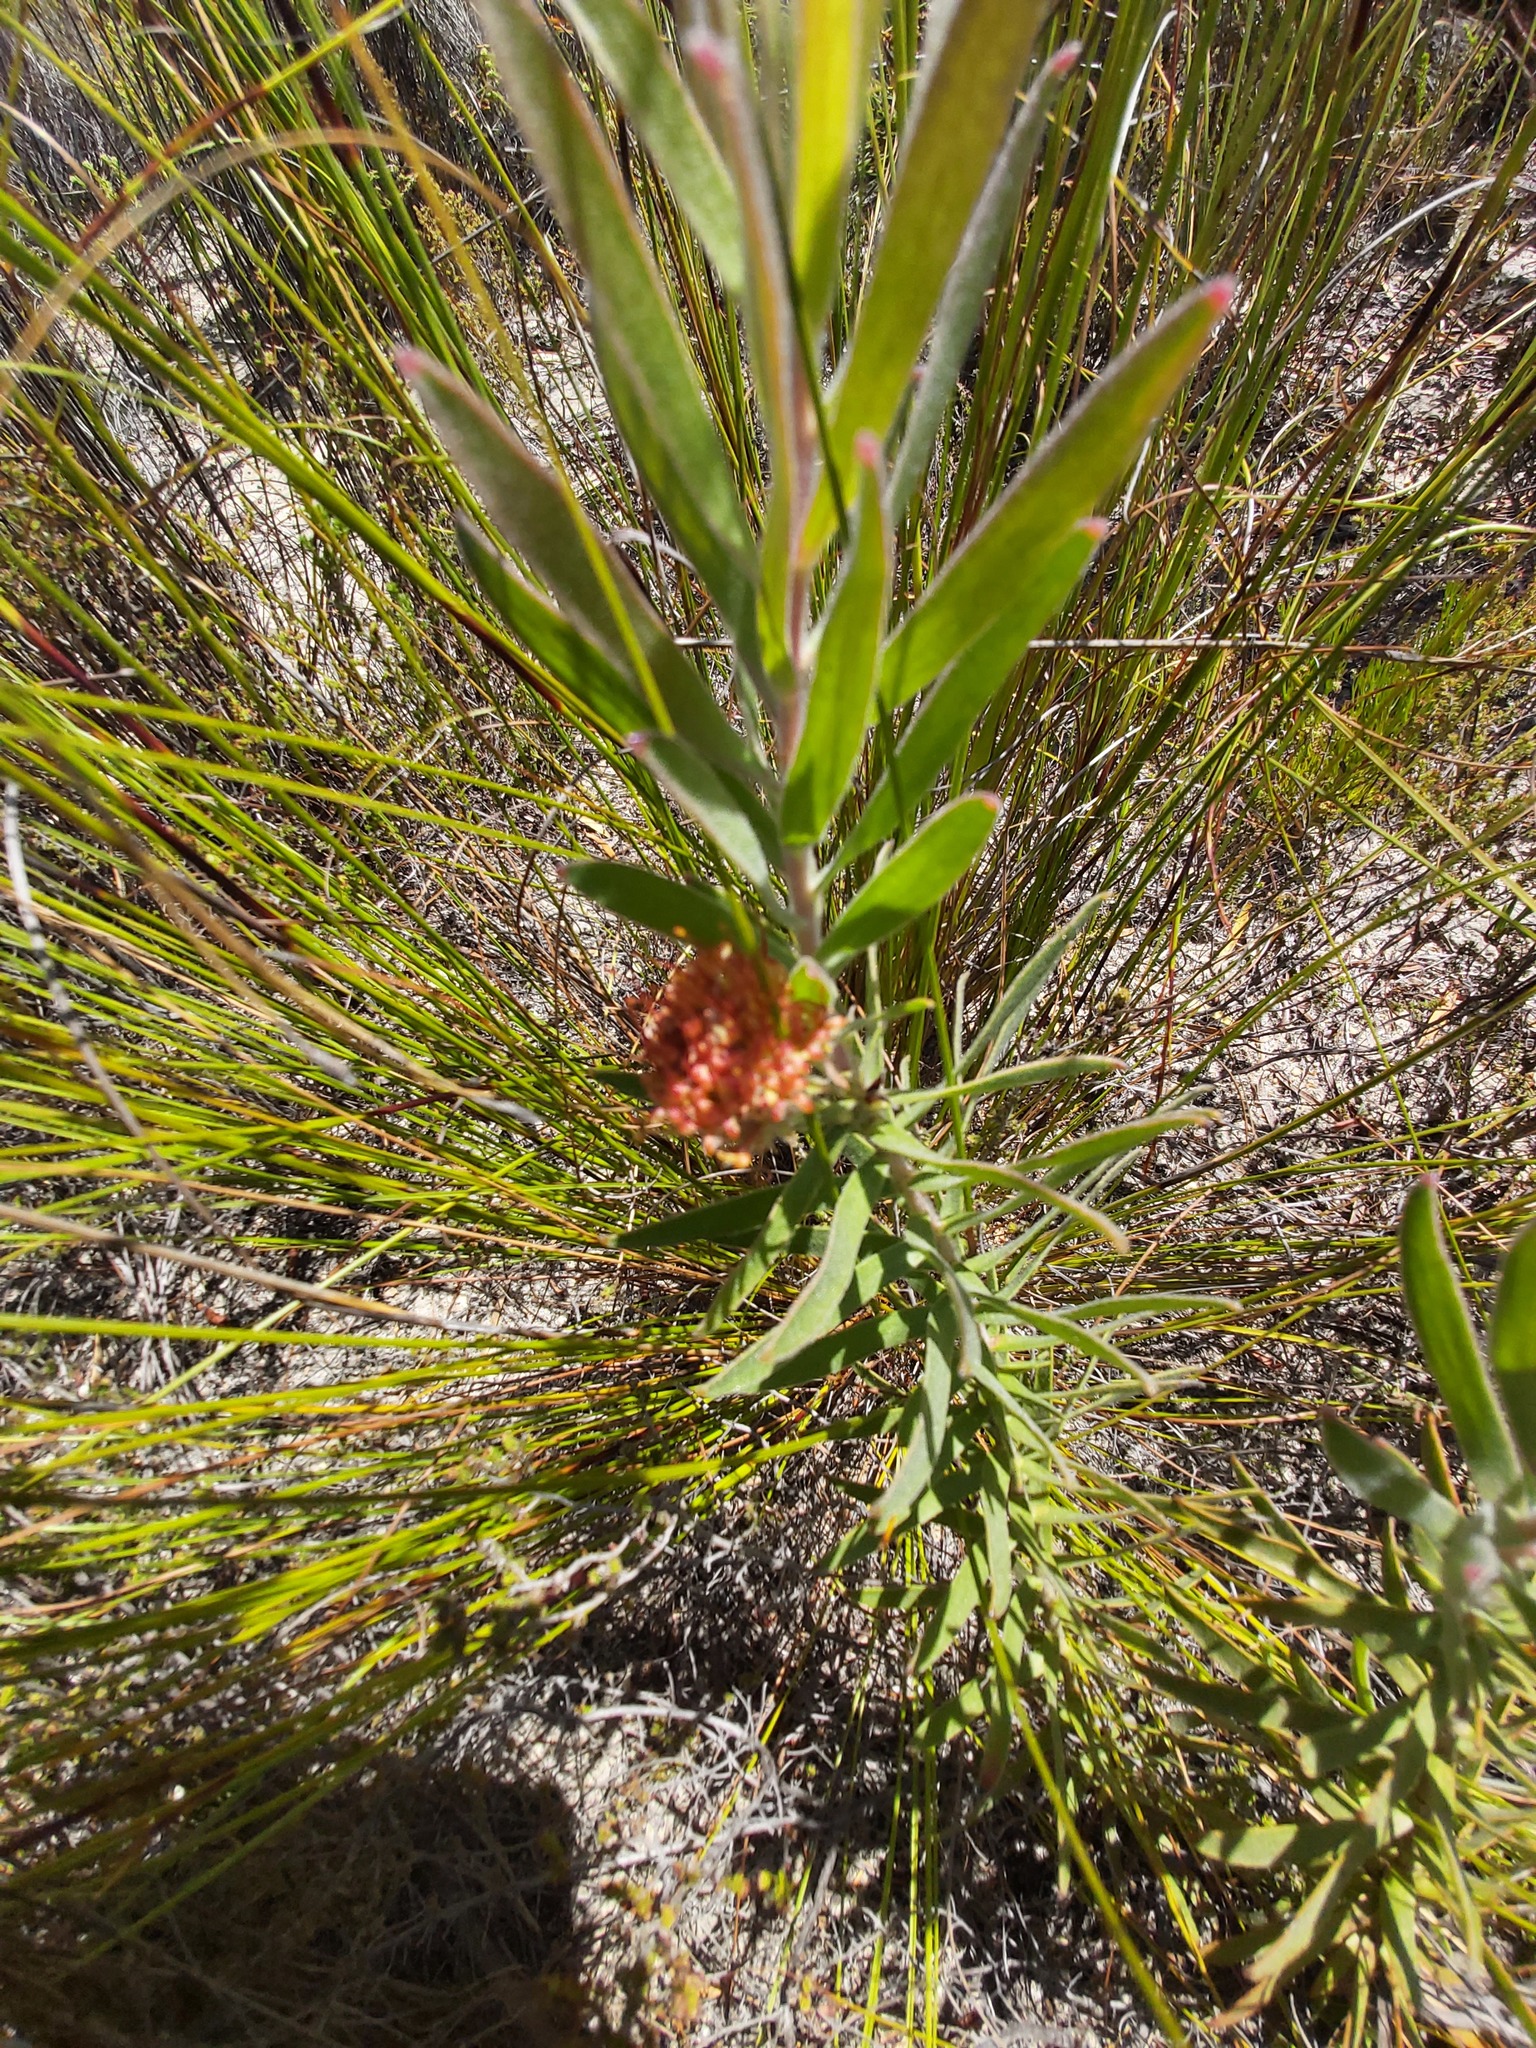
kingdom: Plantae
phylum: Tracheophyta
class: Magnoliopsida
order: Proteales
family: Proteaceae
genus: Leucospermum
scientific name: Leucospermum truncatulum
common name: Oval-leaf pincushion
